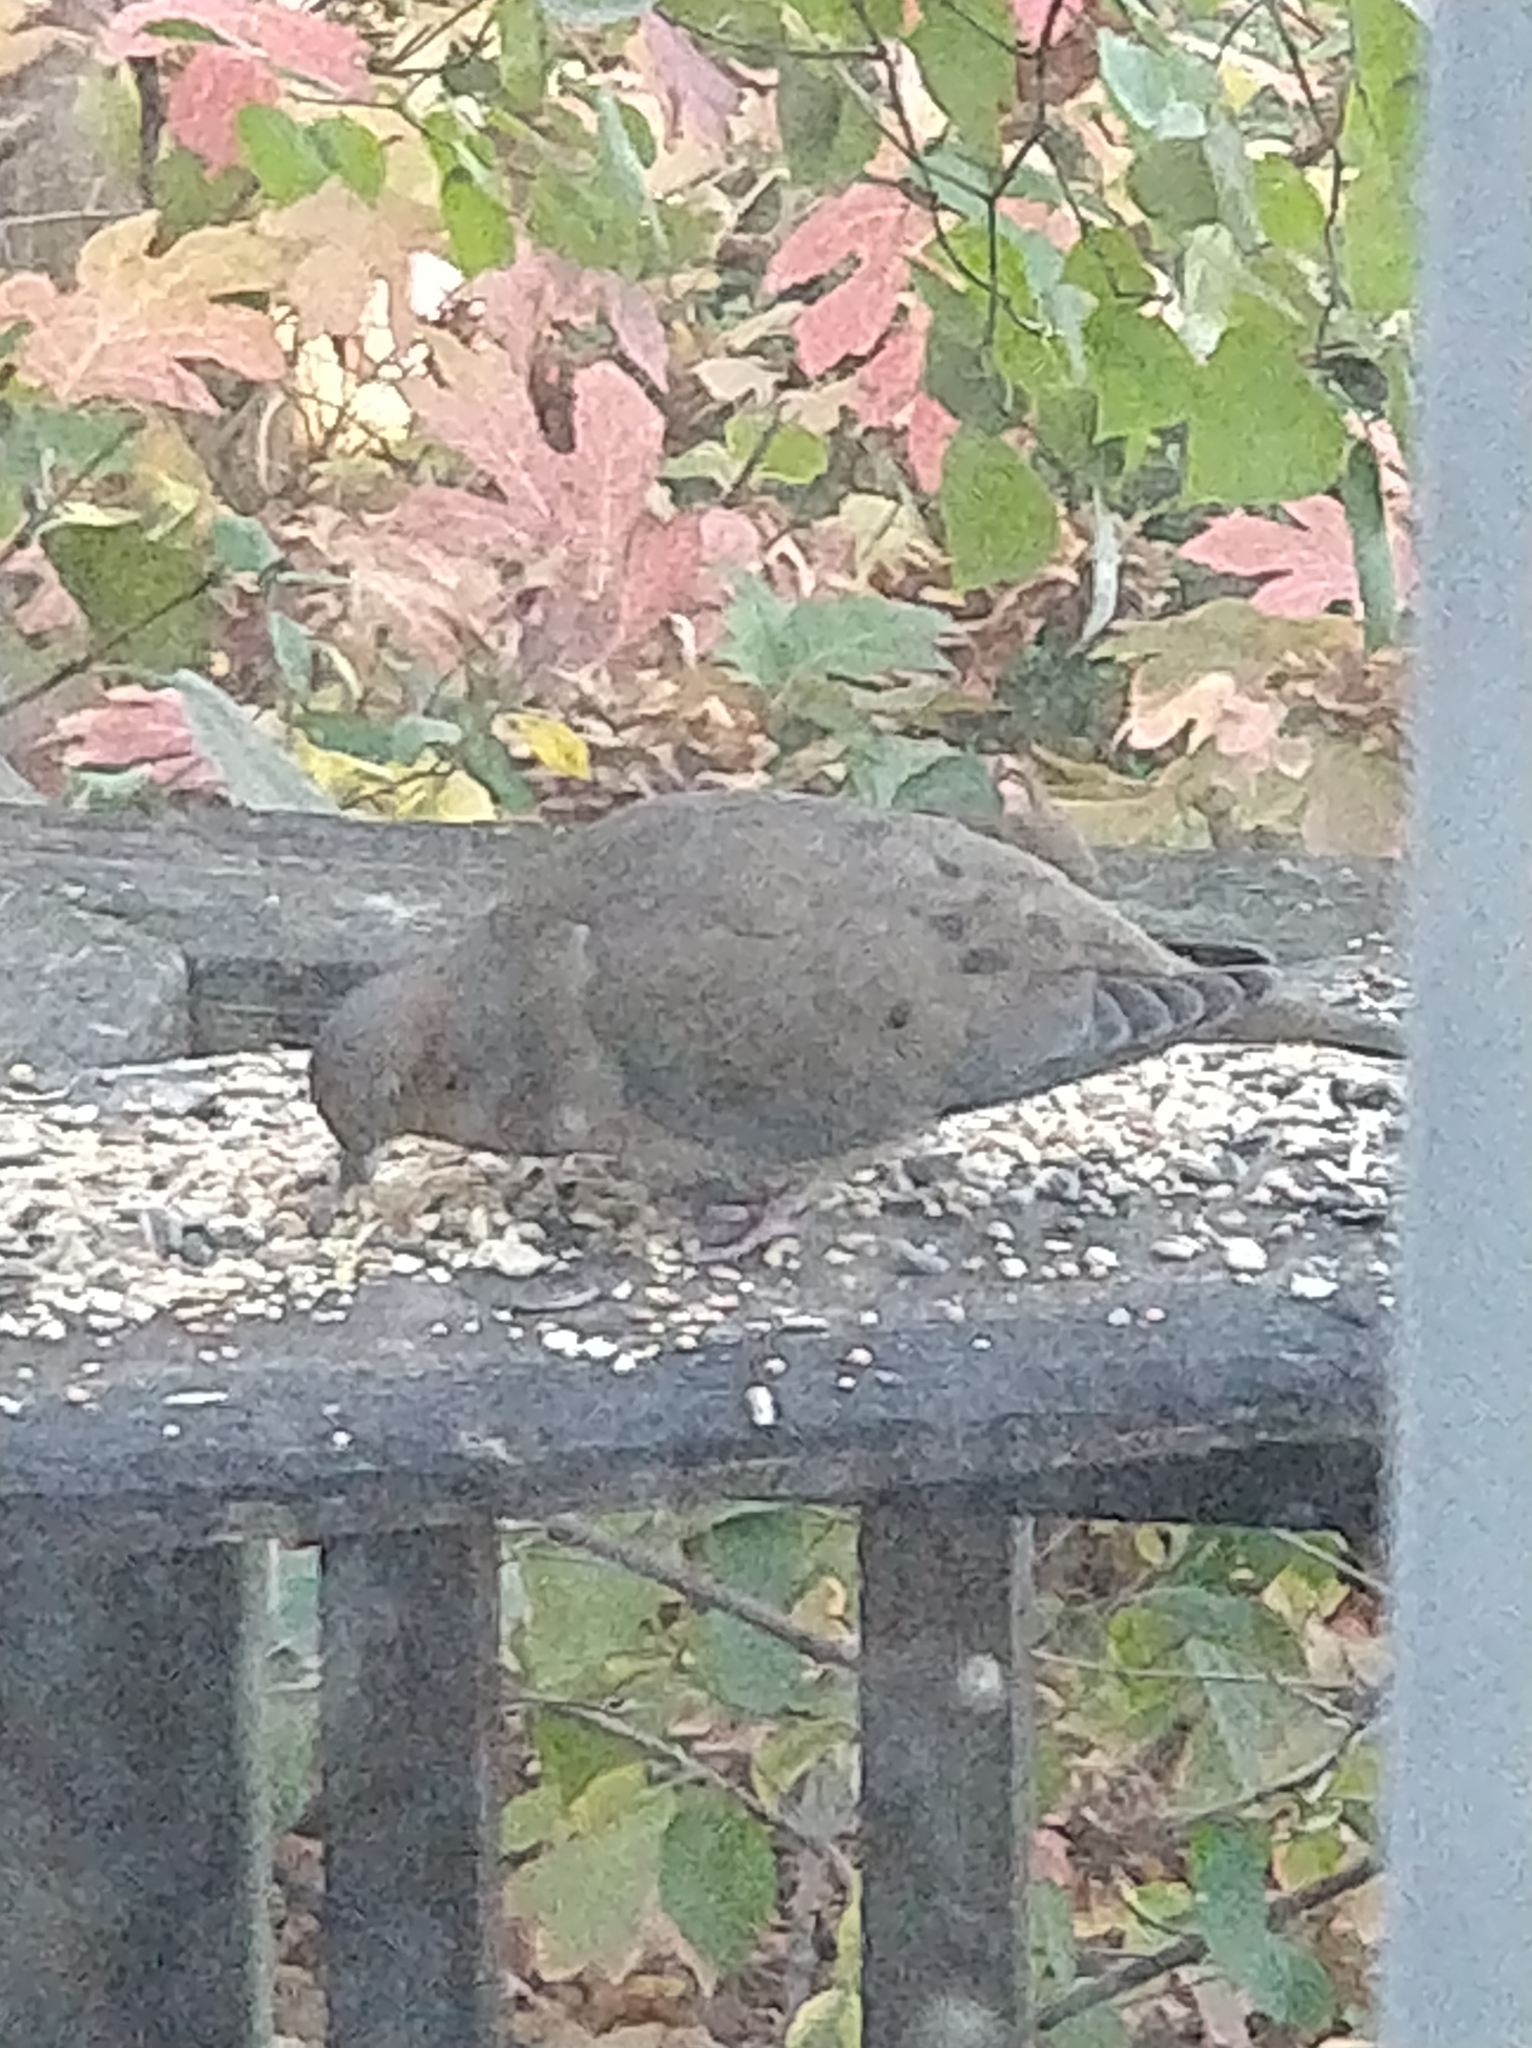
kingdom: Animalia
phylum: Chordata
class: Aves
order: Columbiformes
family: Columbidae
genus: Zenaida
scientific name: Zenaida macroura
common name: Mourning dove
